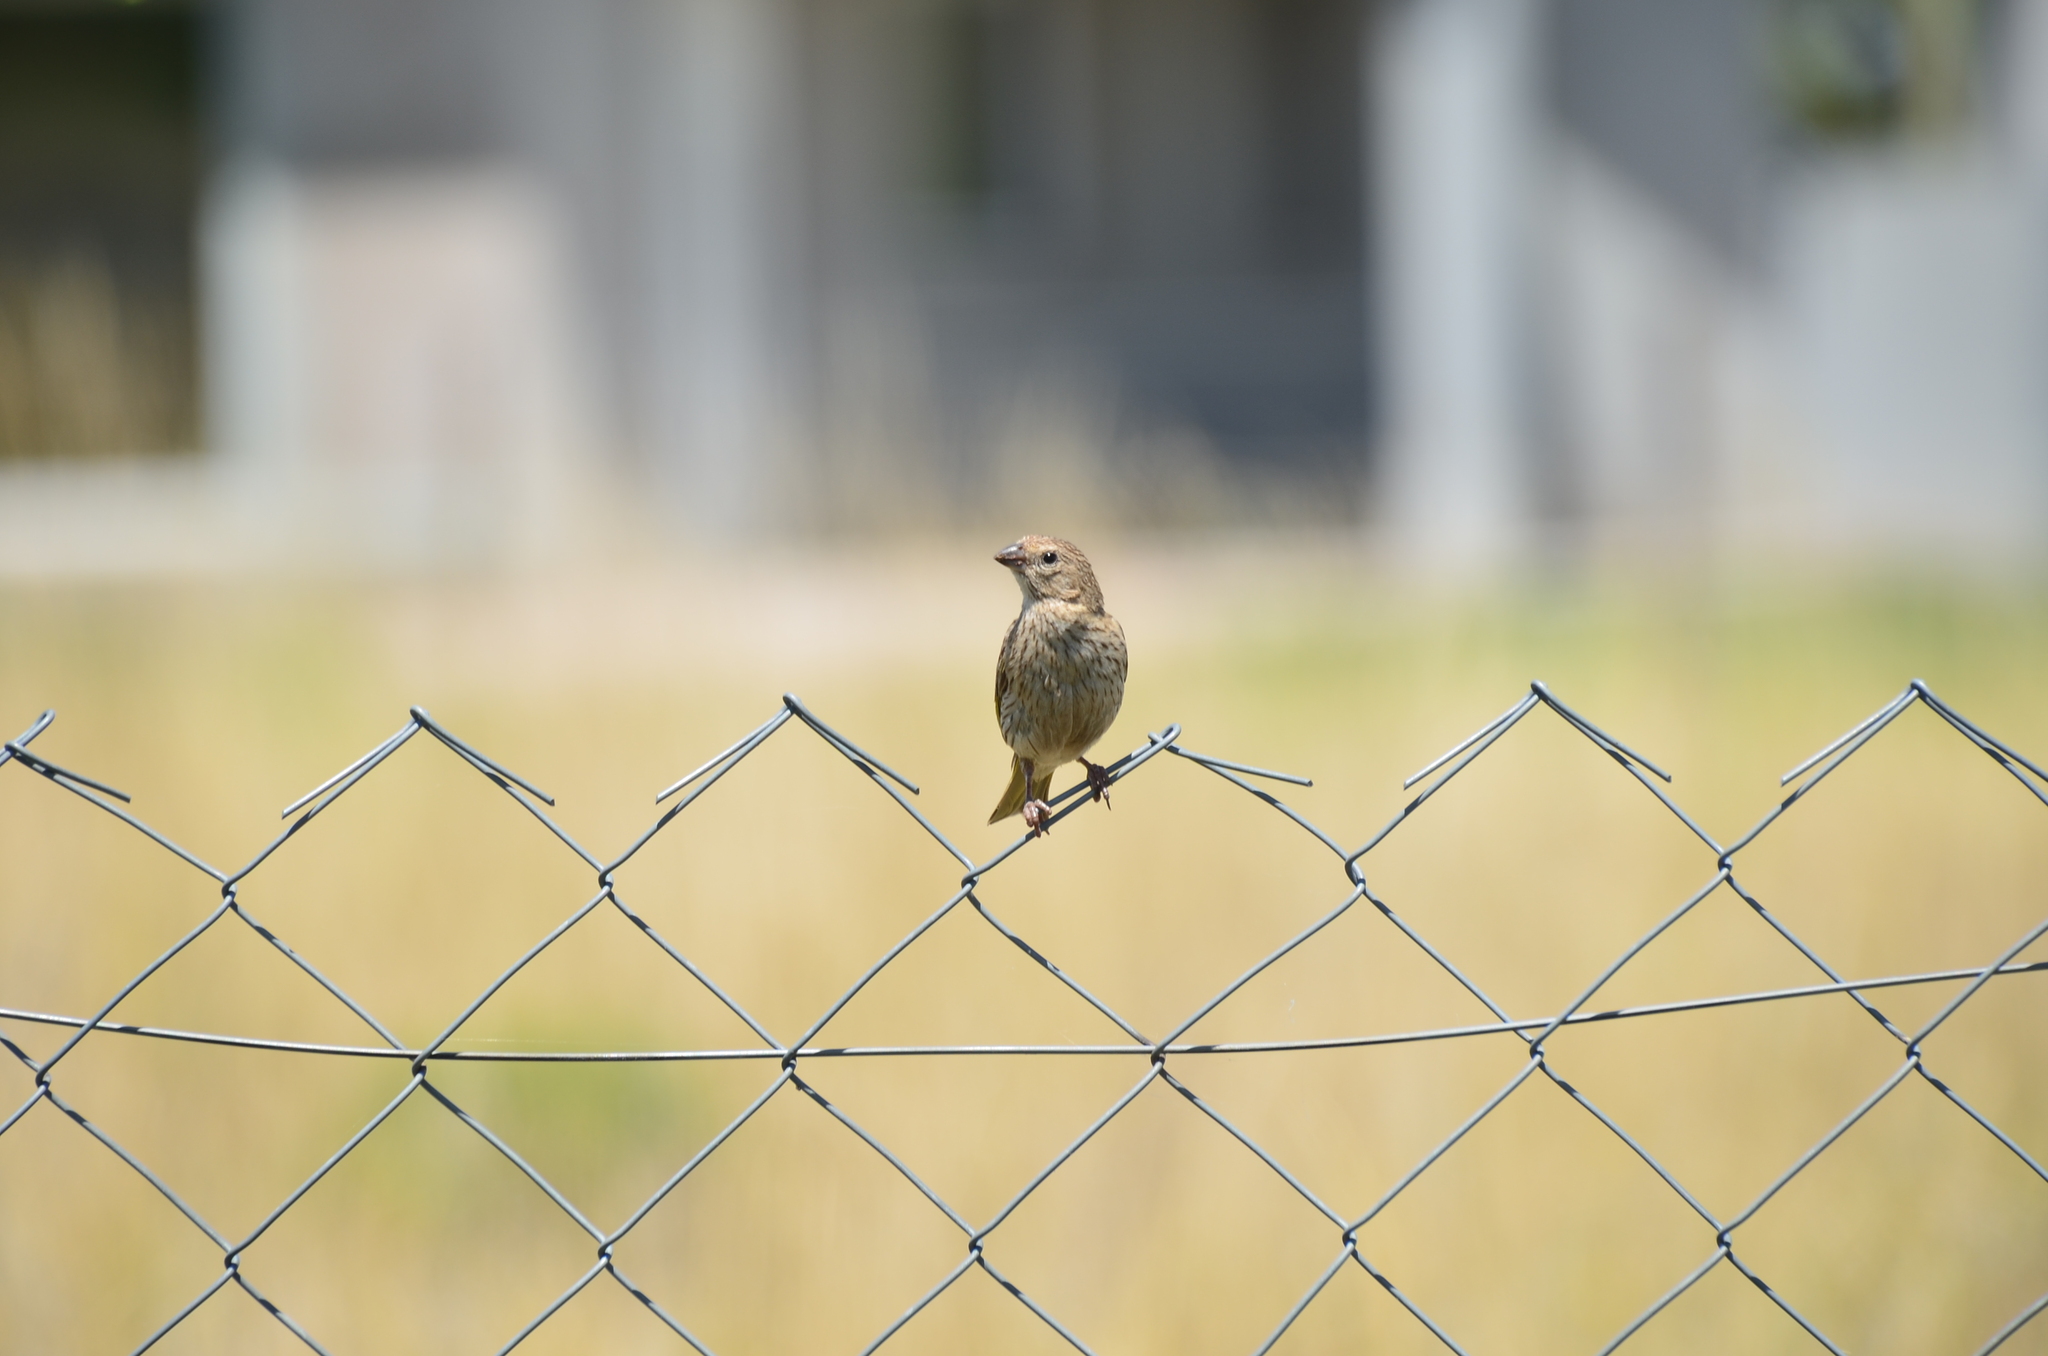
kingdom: Animalia
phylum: Chordata
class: Aves
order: Passeriformes
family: Thraupidae
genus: Sicalis
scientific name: Sicalis flaveola
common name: Saffron finch
